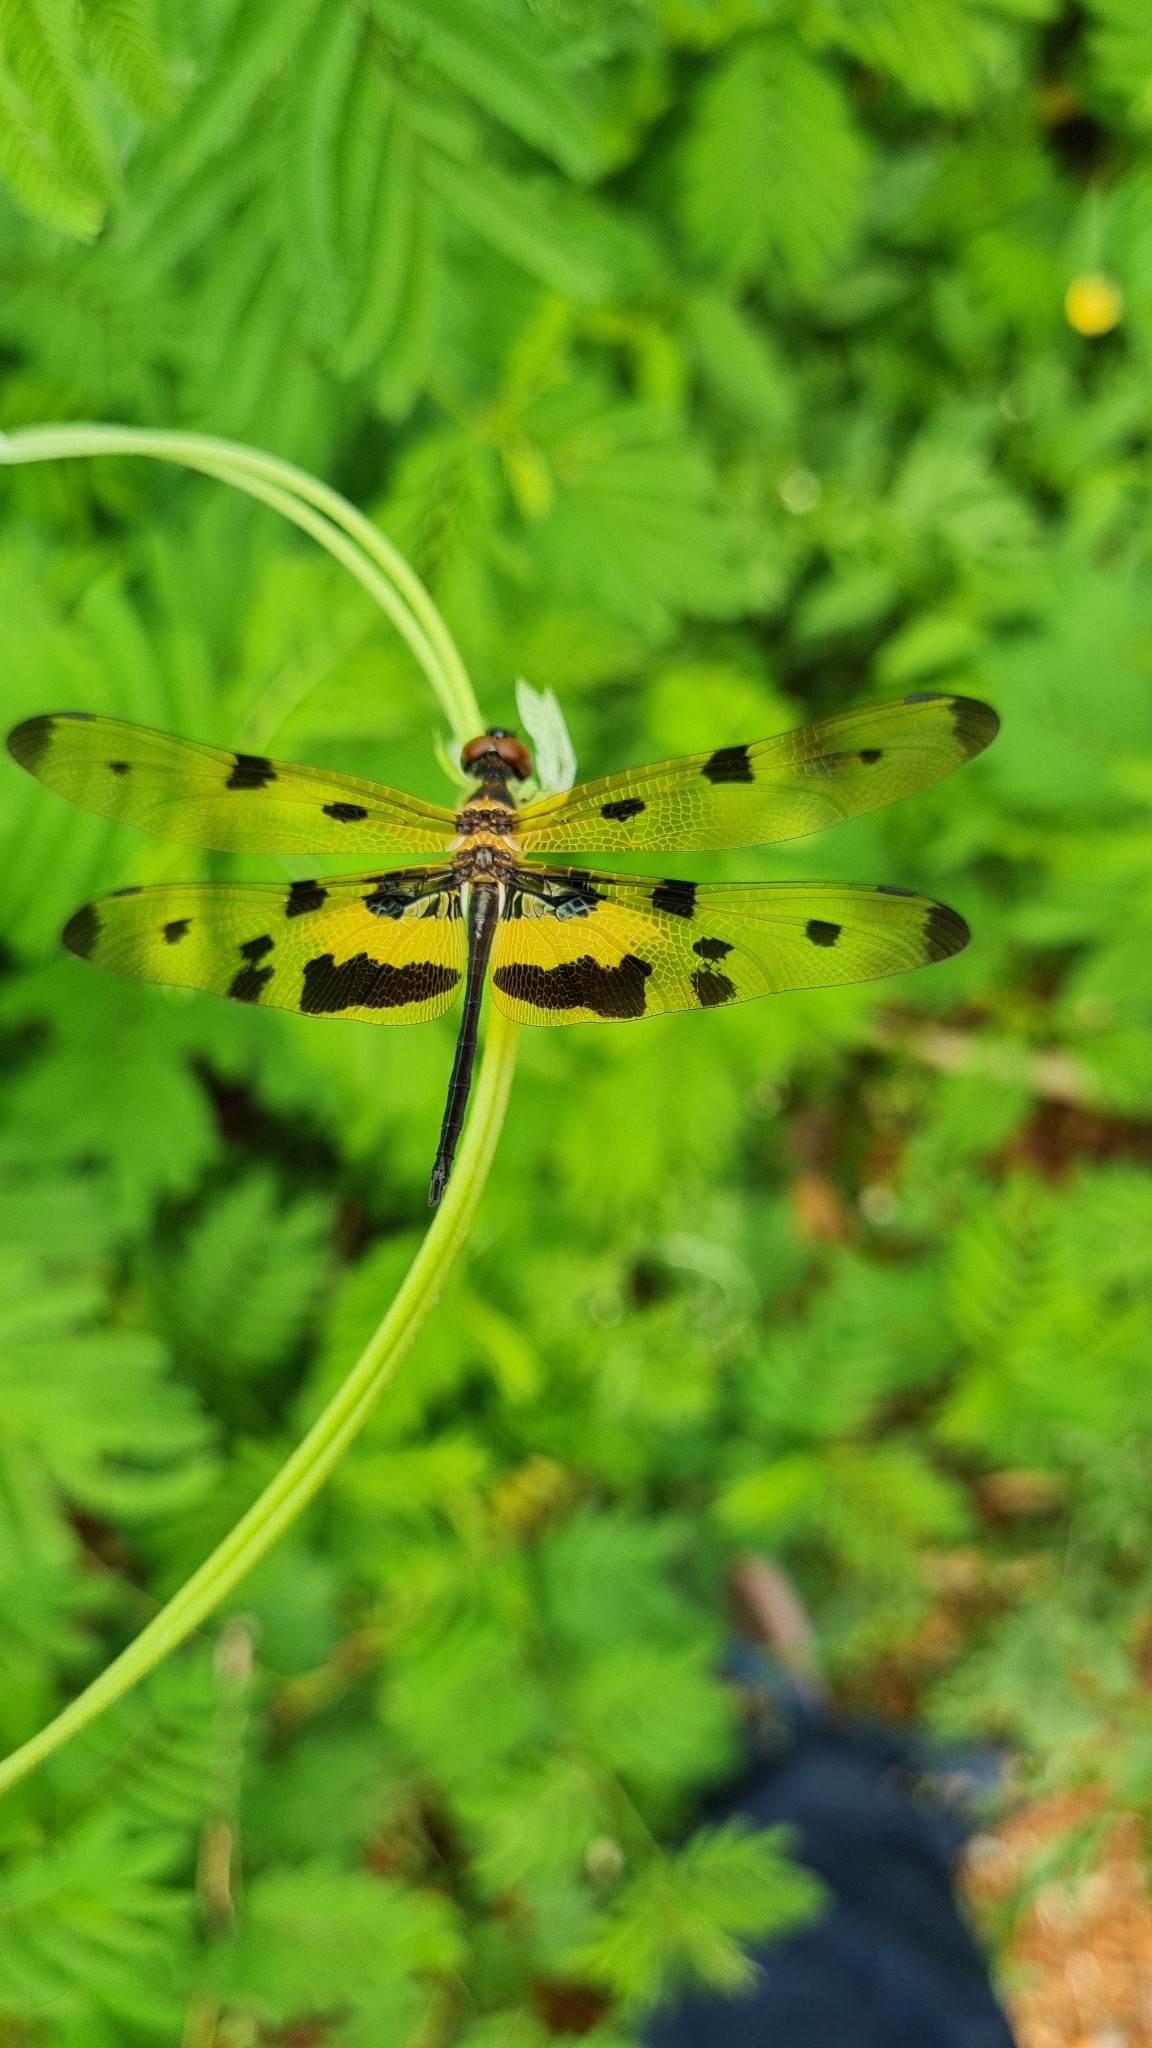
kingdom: Animalia
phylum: Arthropoda
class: Insecta
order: Odonata
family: Libellulidae
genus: Rhyothemis
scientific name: Rhyothemis variegata
